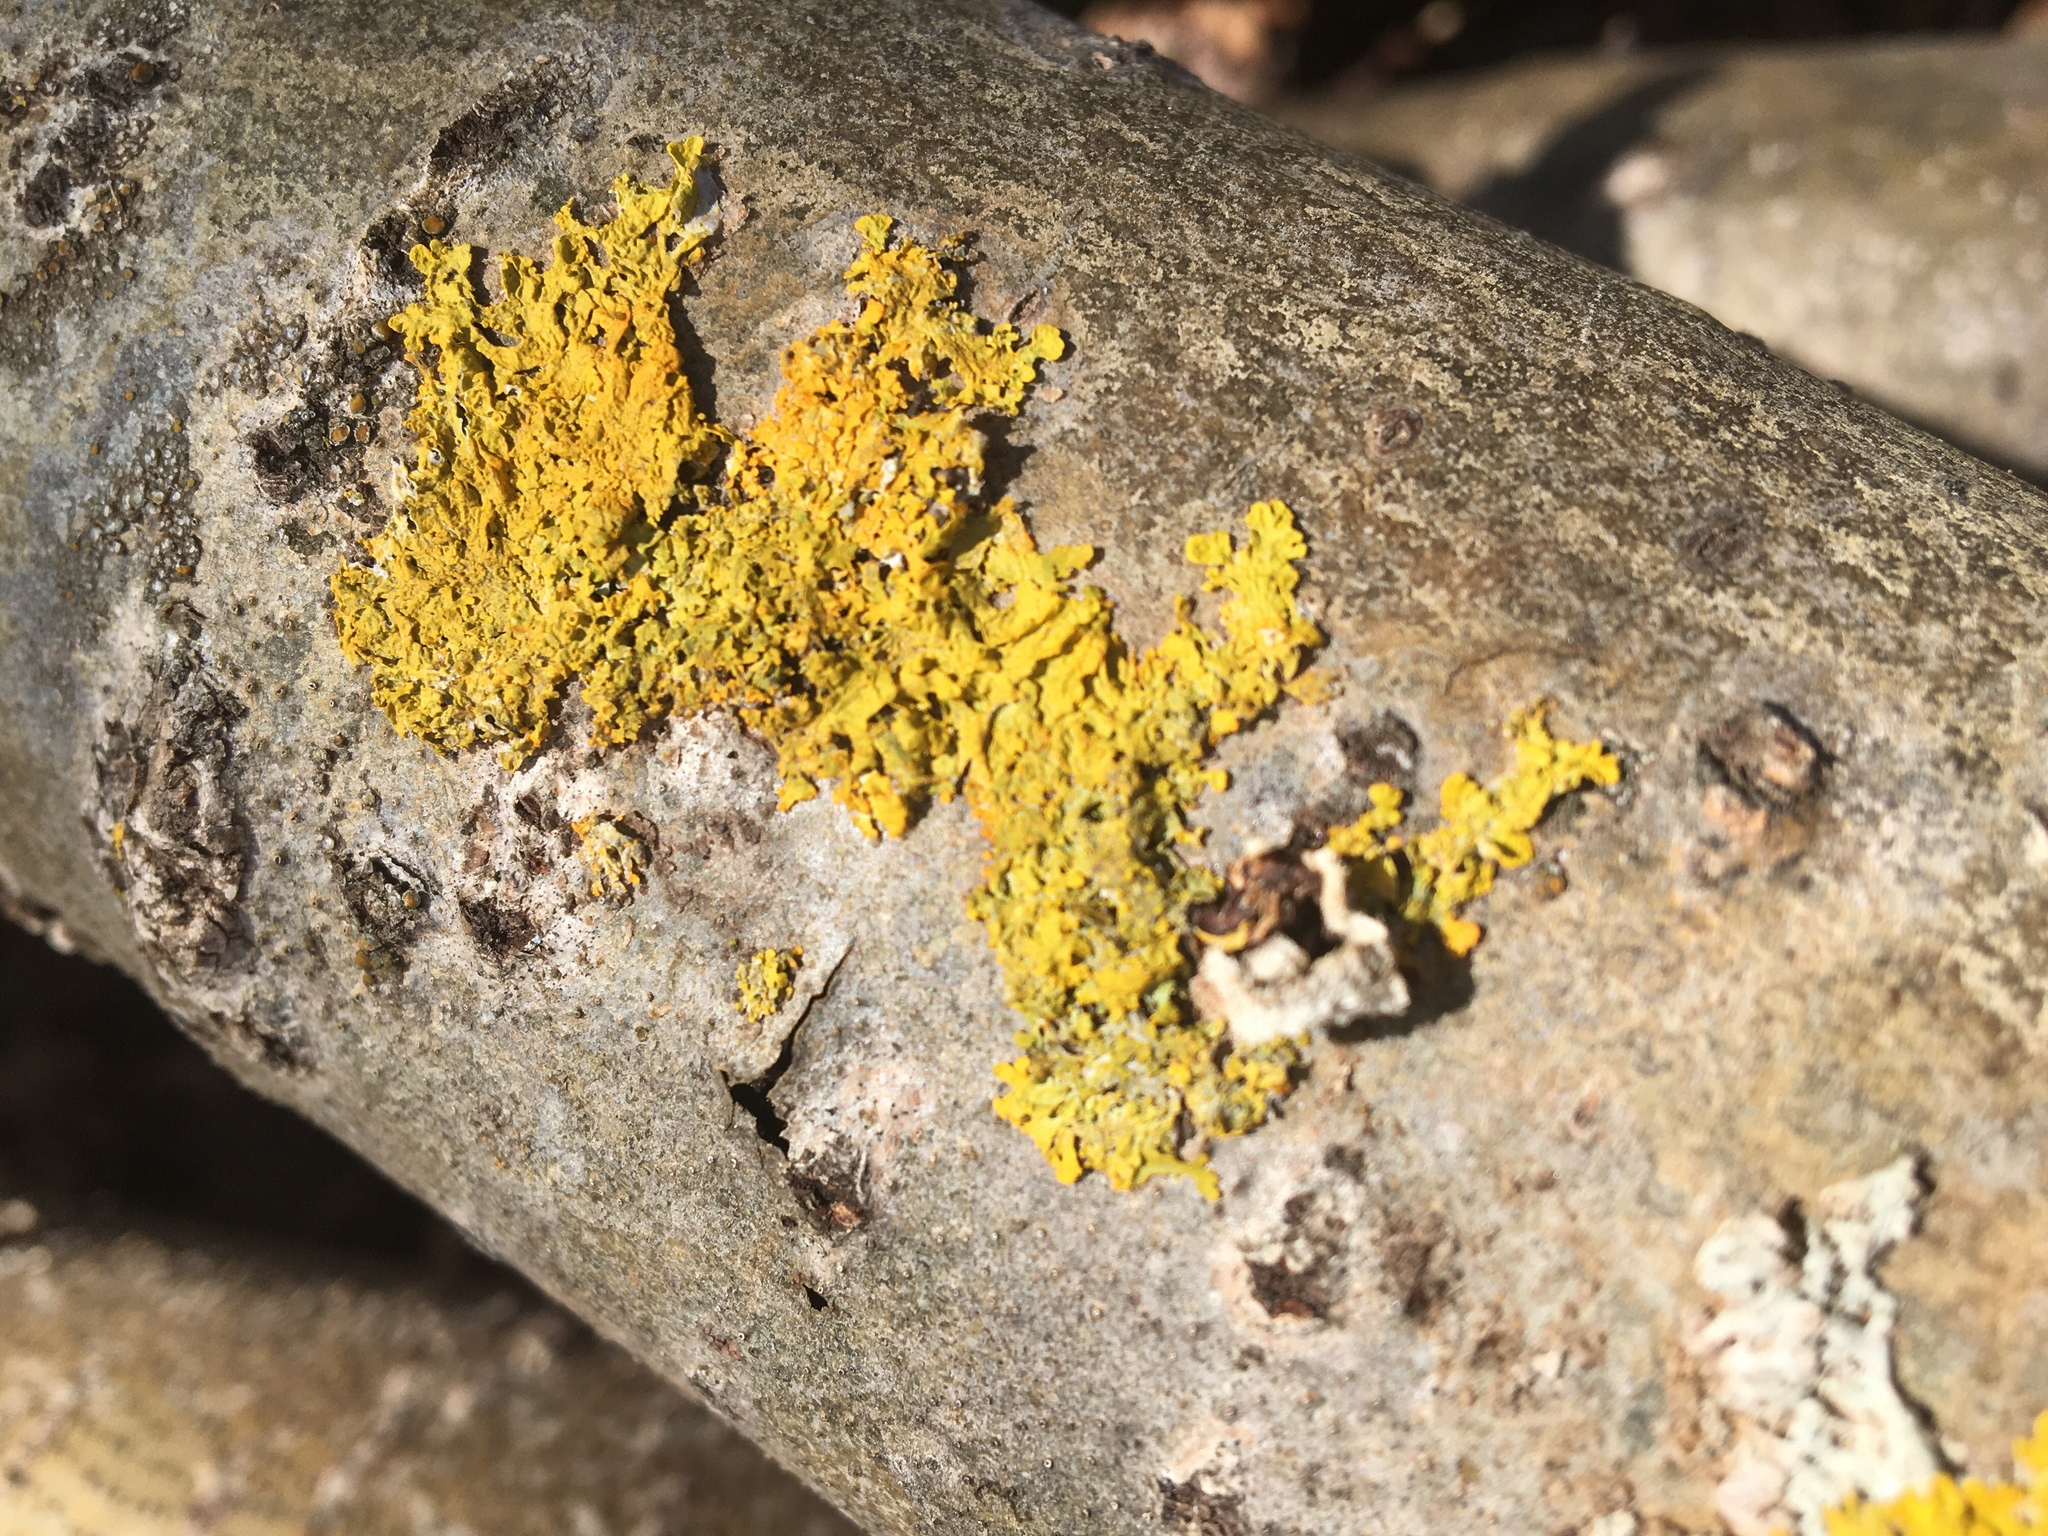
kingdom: Fungi
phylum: Ascomycota
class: Lecanoromycetes
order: Teloschistales
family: Teloschistaceae
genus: Xanthoria
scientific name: Xanthoria parietina
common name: Common orange lichen
